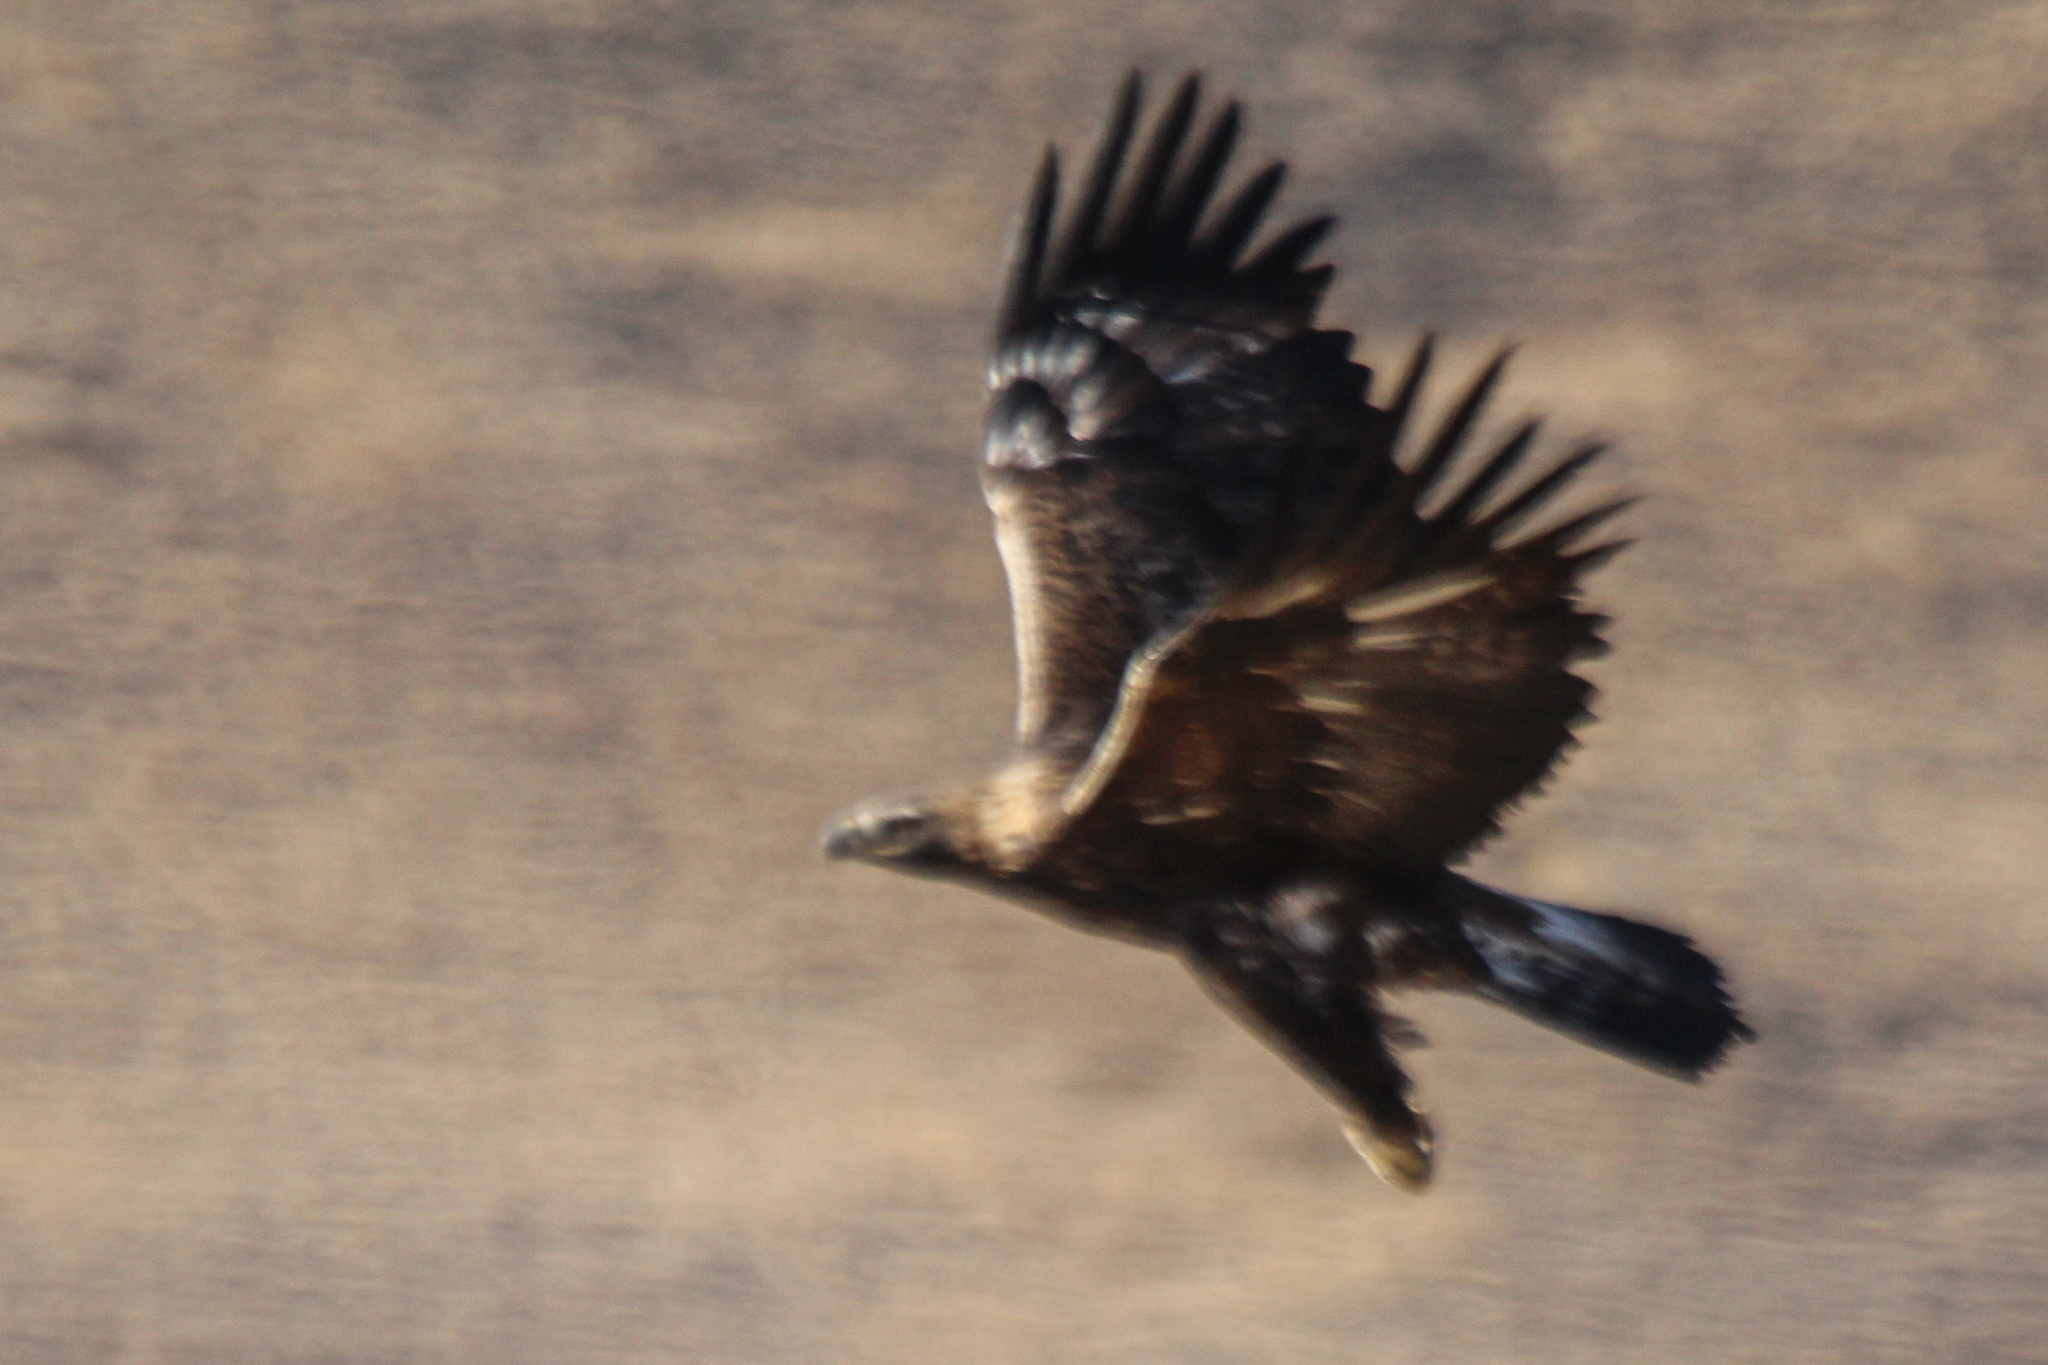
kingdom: Animalia
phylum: Chordata
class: Aves
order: Accipitriformes
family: Accipitridae
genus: Aquila
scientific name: Aquila chrysaetos
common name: Golden eagle
